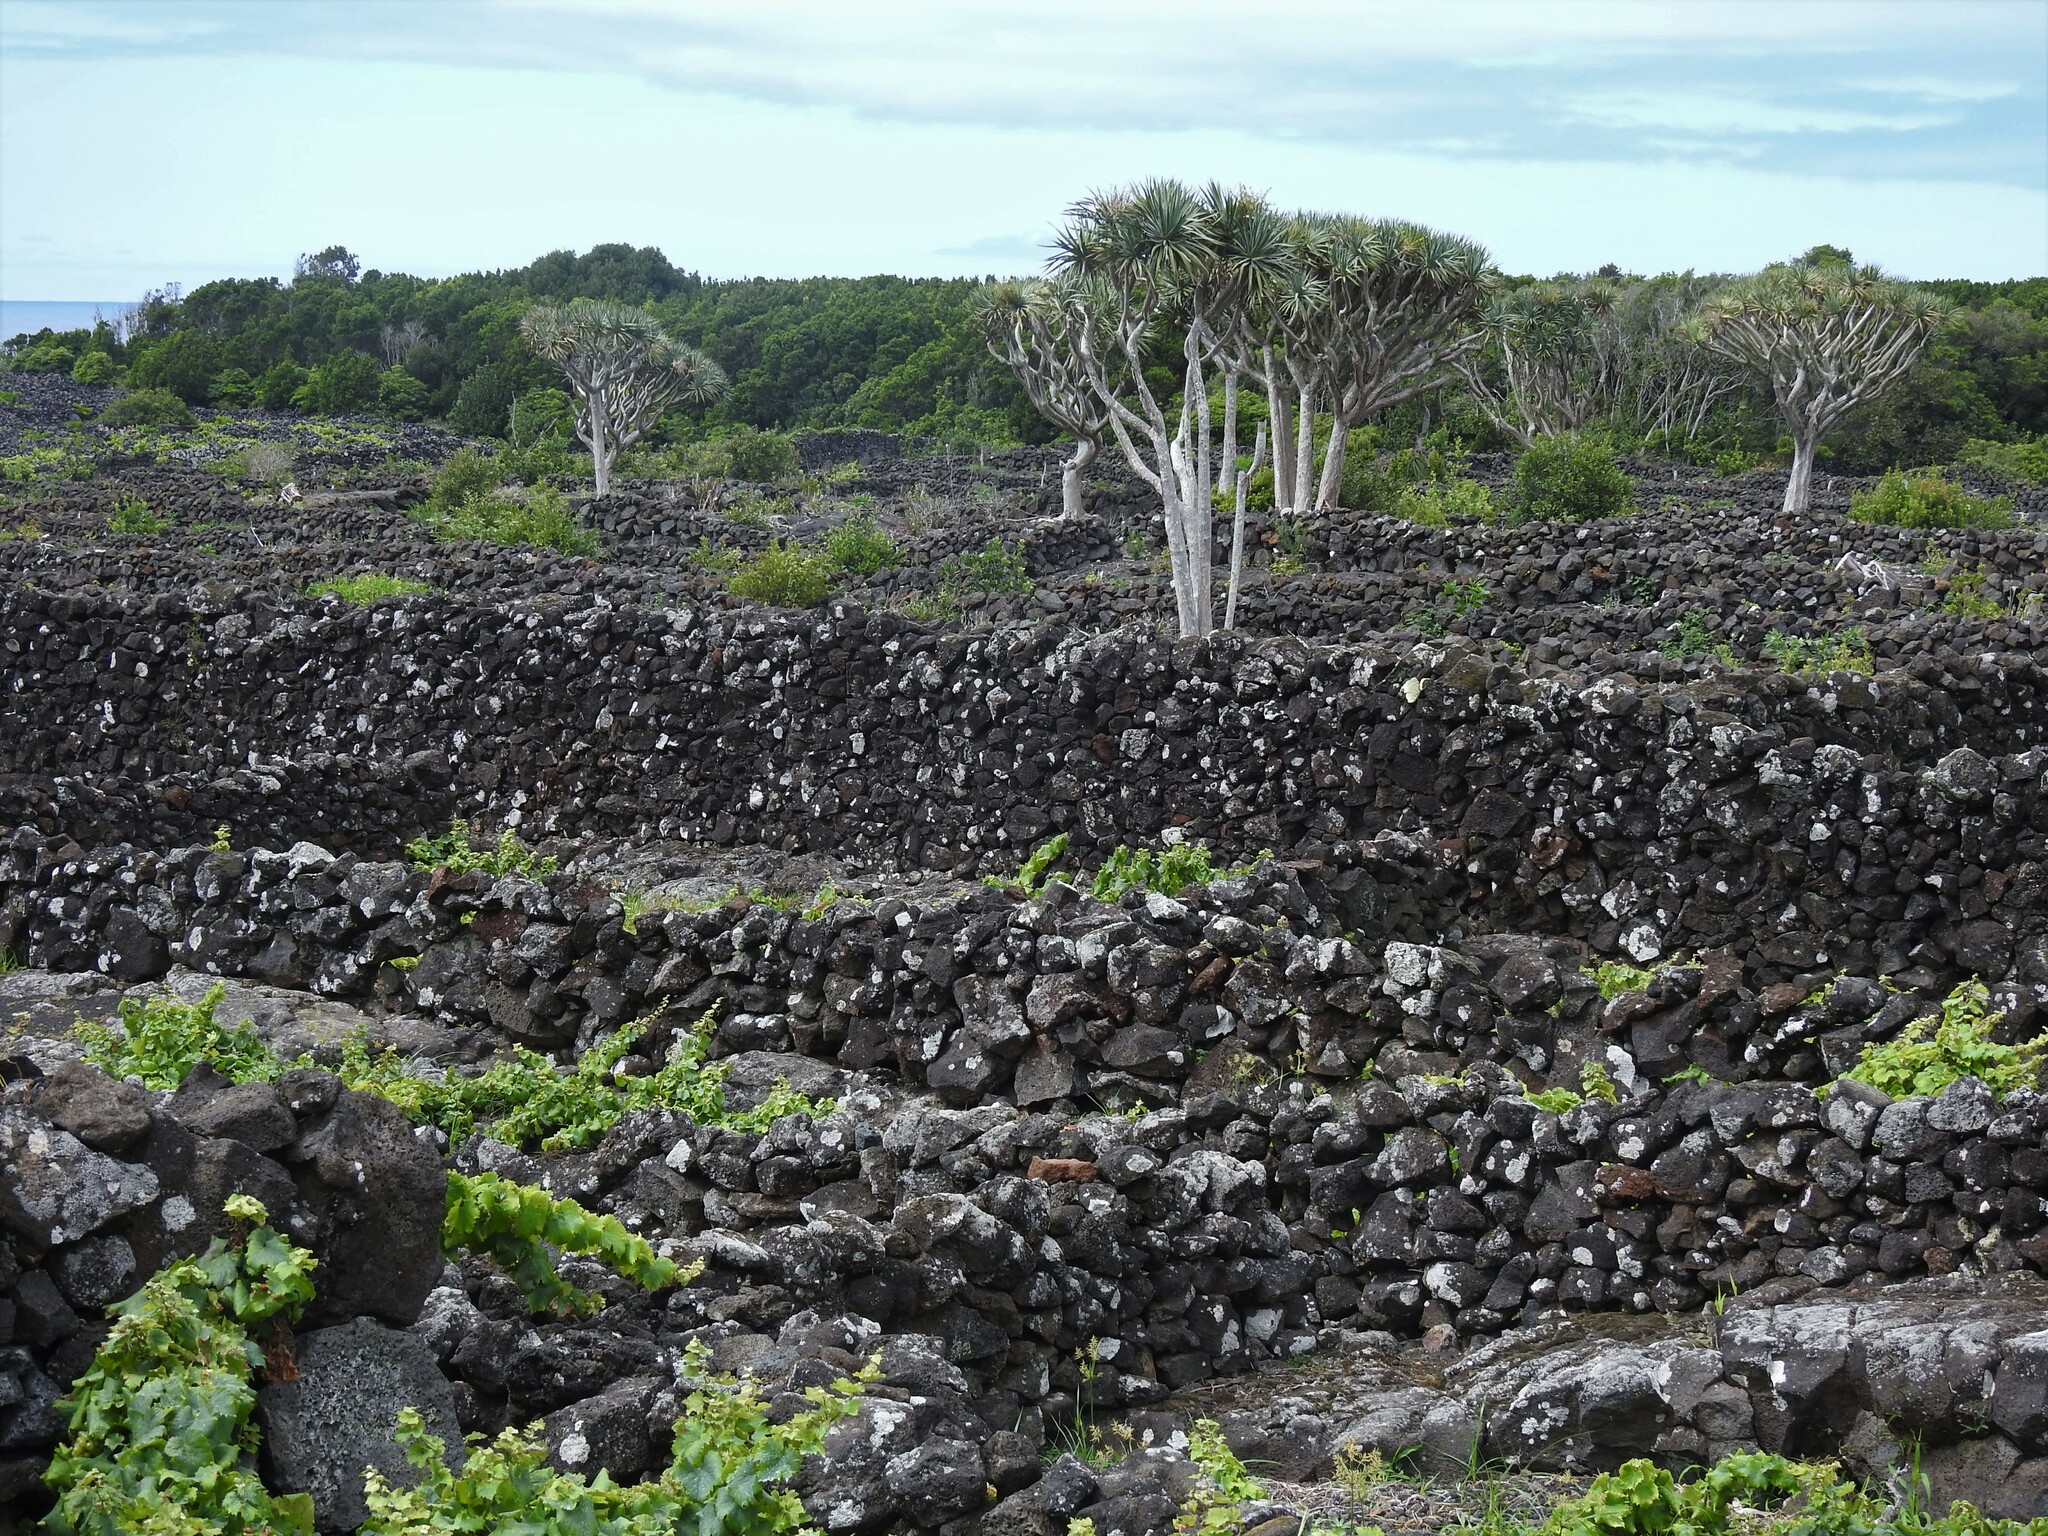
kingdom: Plantae
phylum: Tracheophyta
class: Liliopsida
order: Asparagales
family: Asparagaceae
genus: Dracaena
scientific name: Dracaena draco
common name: Canary island dragon tree
